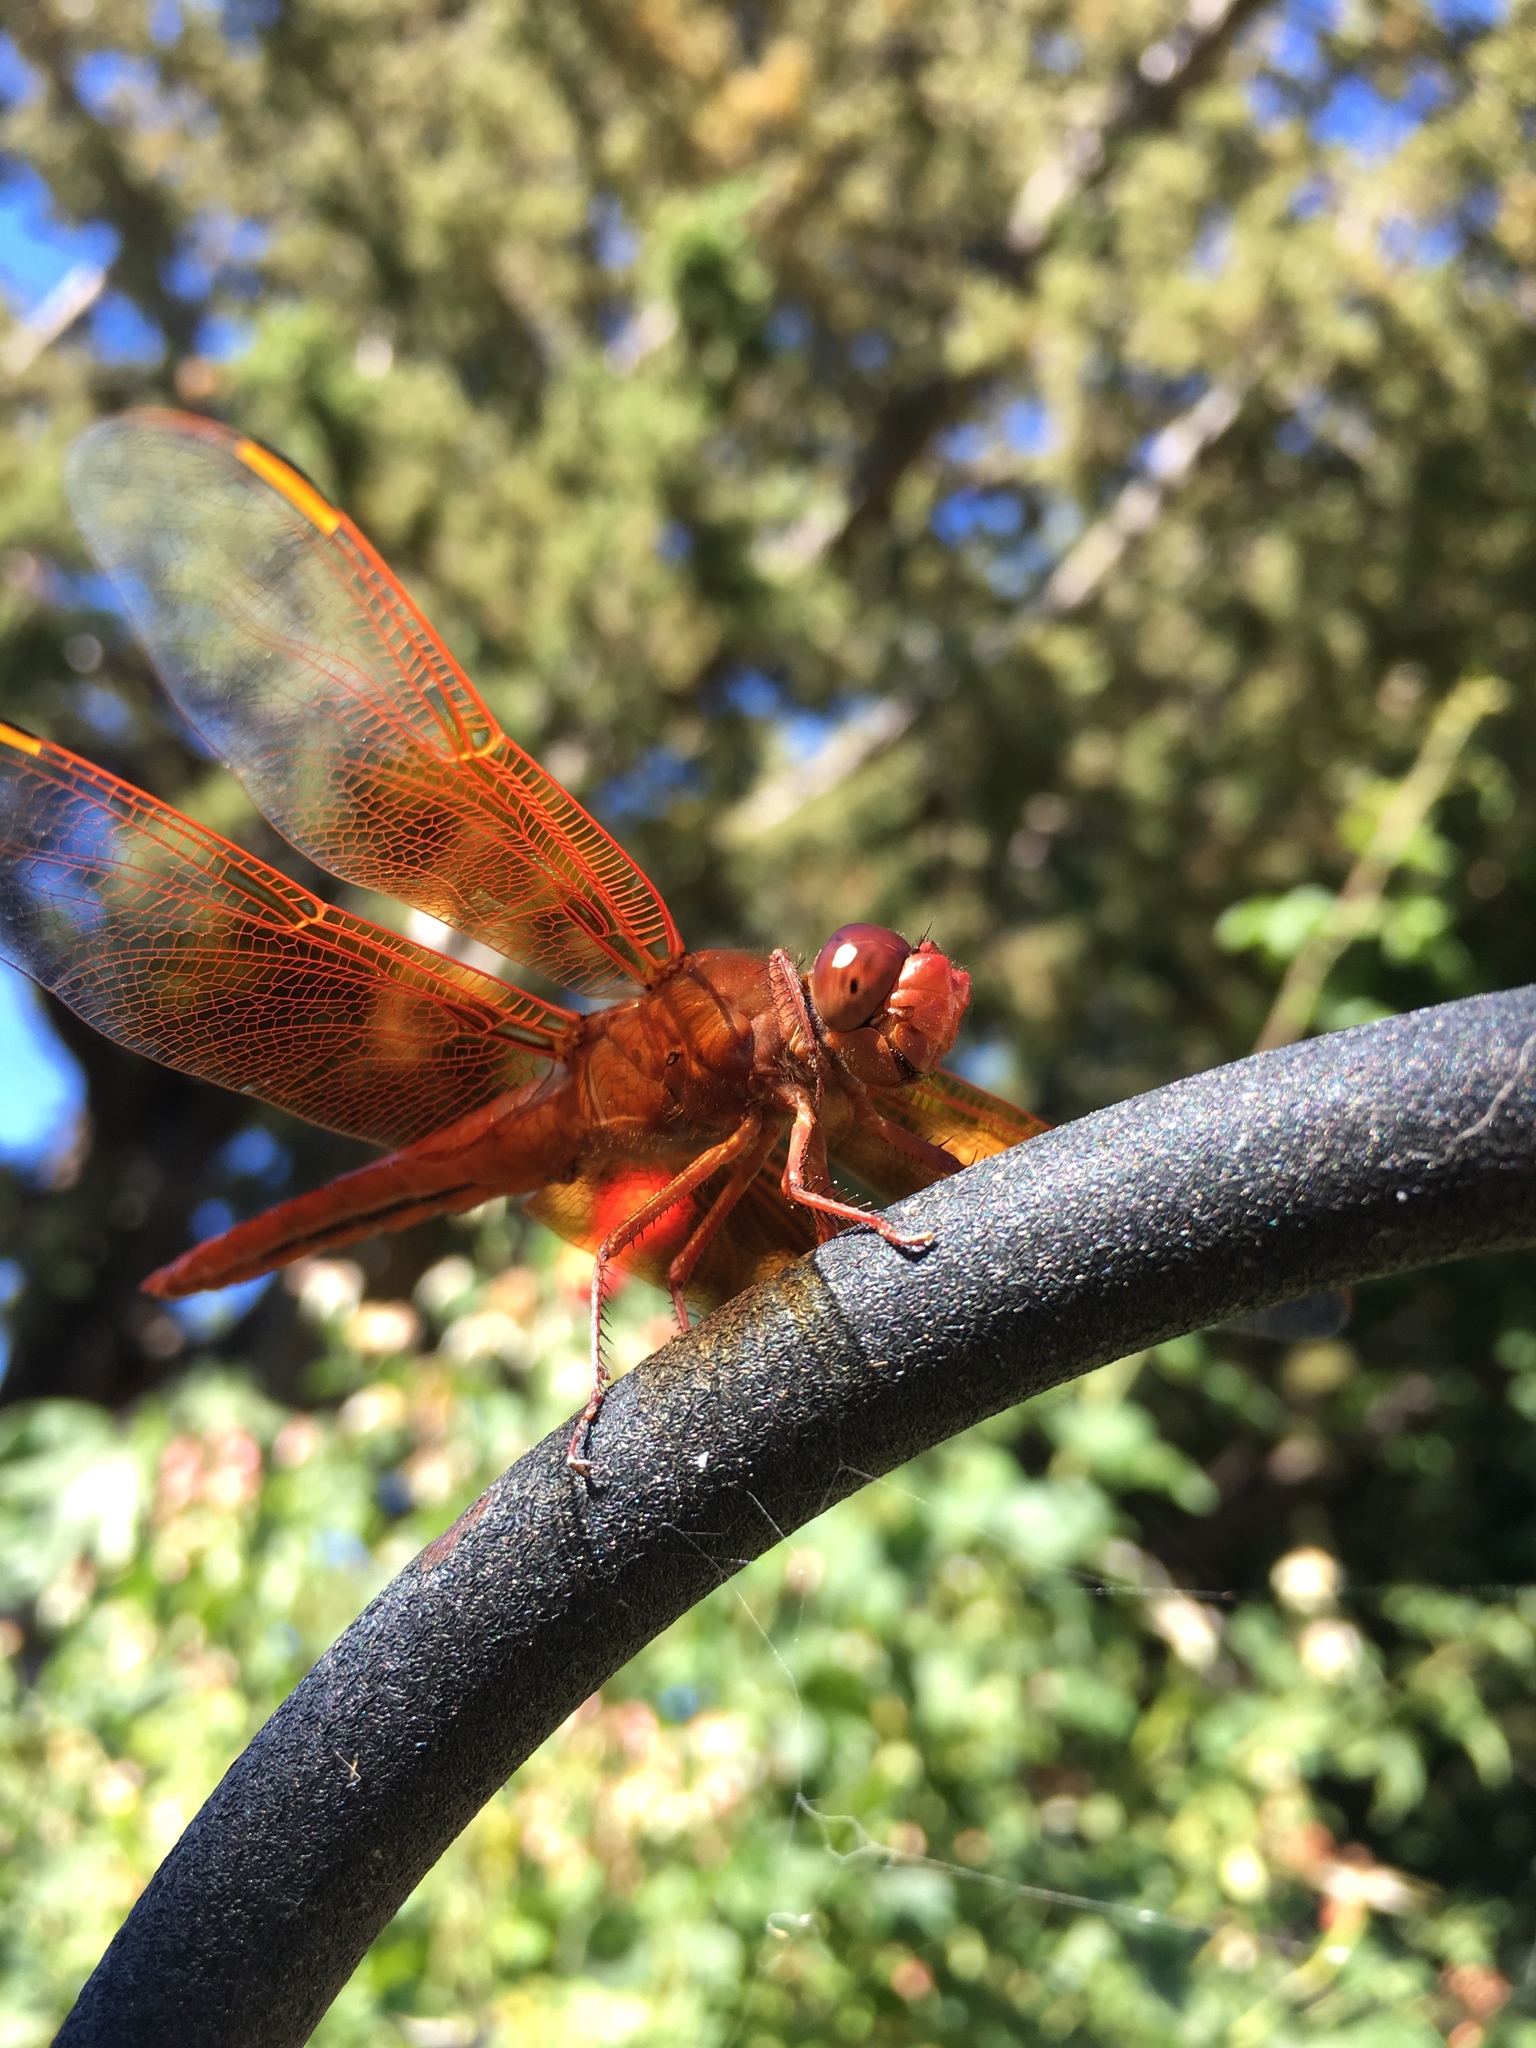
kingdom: Animalia
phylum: Arthropoda
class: Insecta
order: Odonata
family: Libellulidae
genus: Libellula
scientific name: Libellula saturata
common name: Flame skimmer
